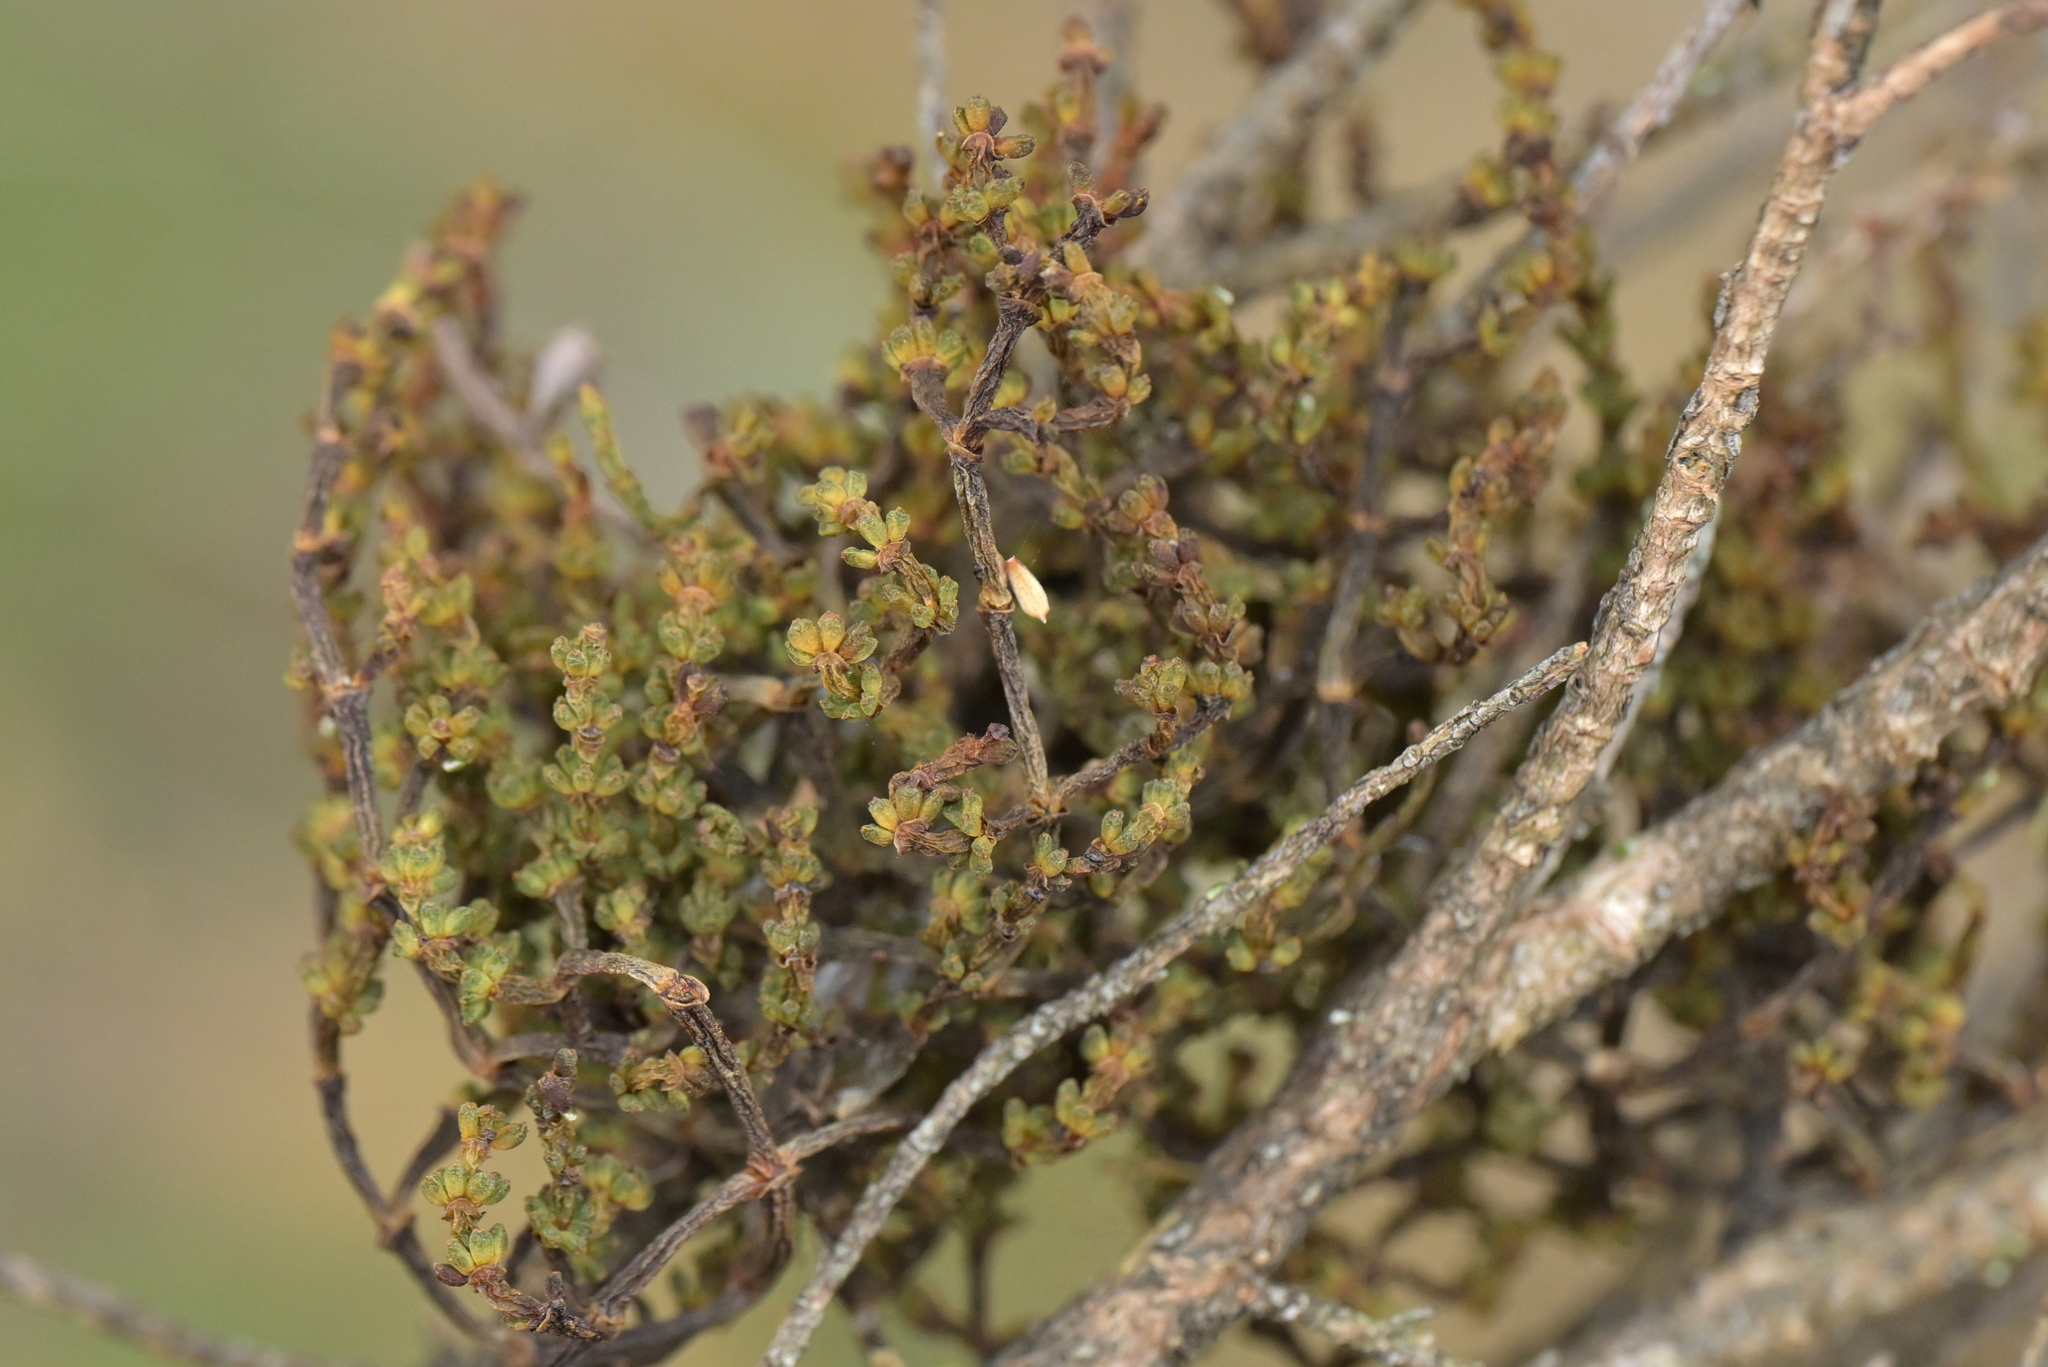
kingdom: Plantae
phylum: Tracheophyta
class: Magnoliopsida
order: Santalales
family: Viscaceae
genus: Korthalsella
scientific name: Korthalsella salicornioides
